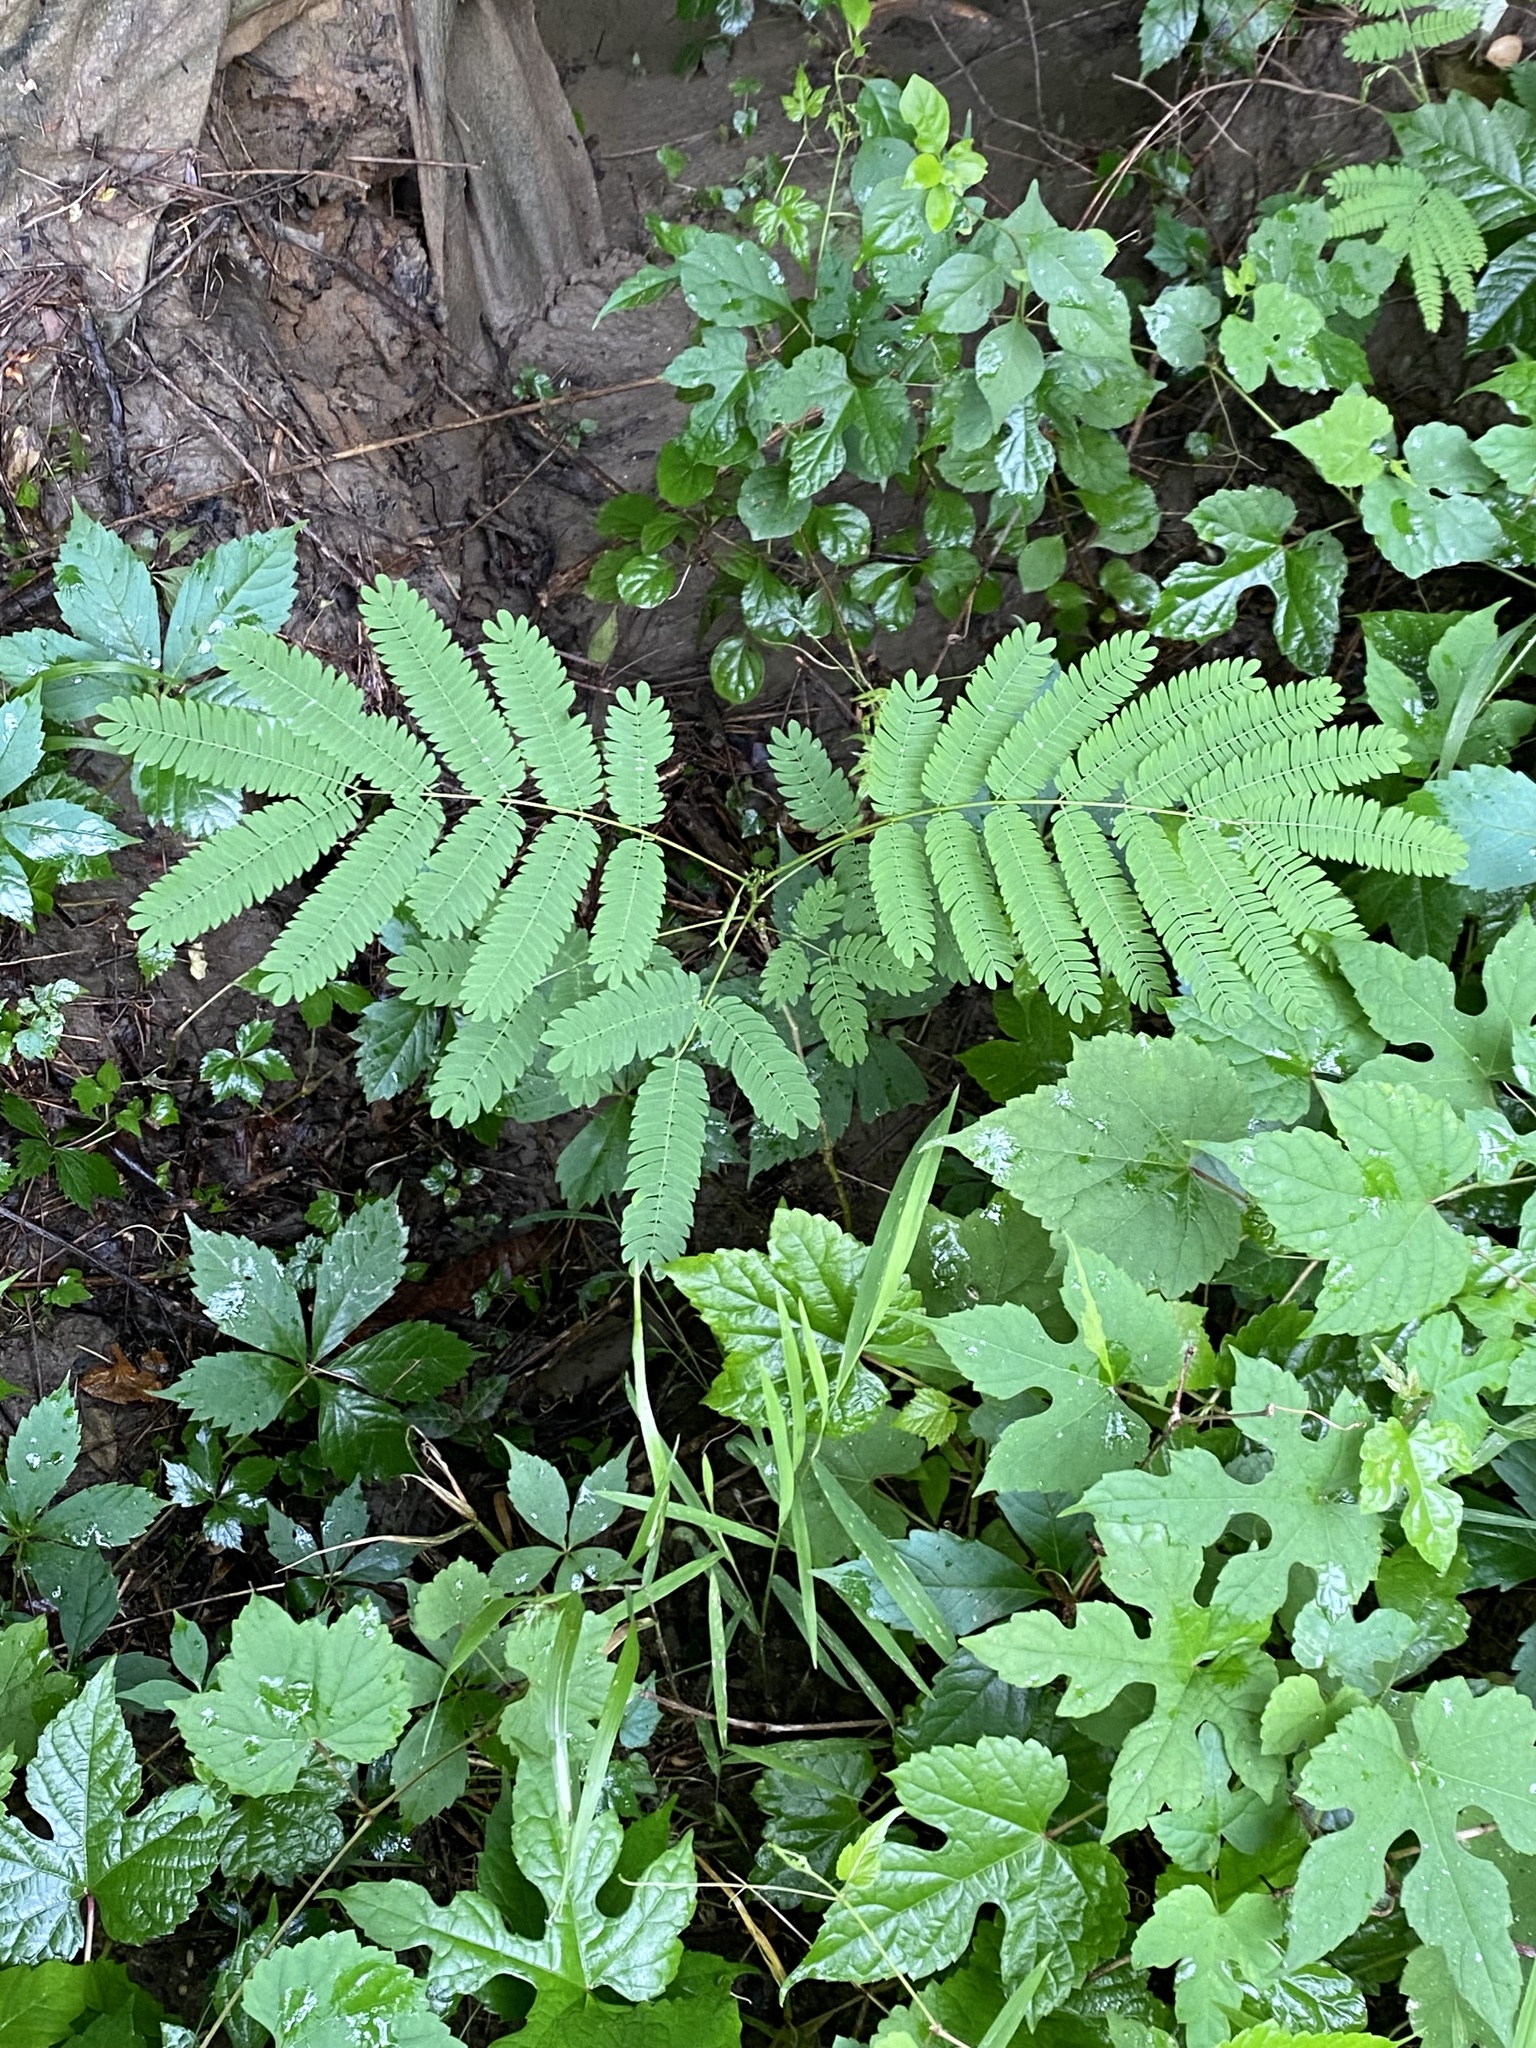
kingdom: Plantae
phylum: Tracheophyta
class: Magnoliopsida
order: Fabales
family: Fabaceae
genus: Albizia
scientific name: Albizia julibrissin
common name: Silktree
